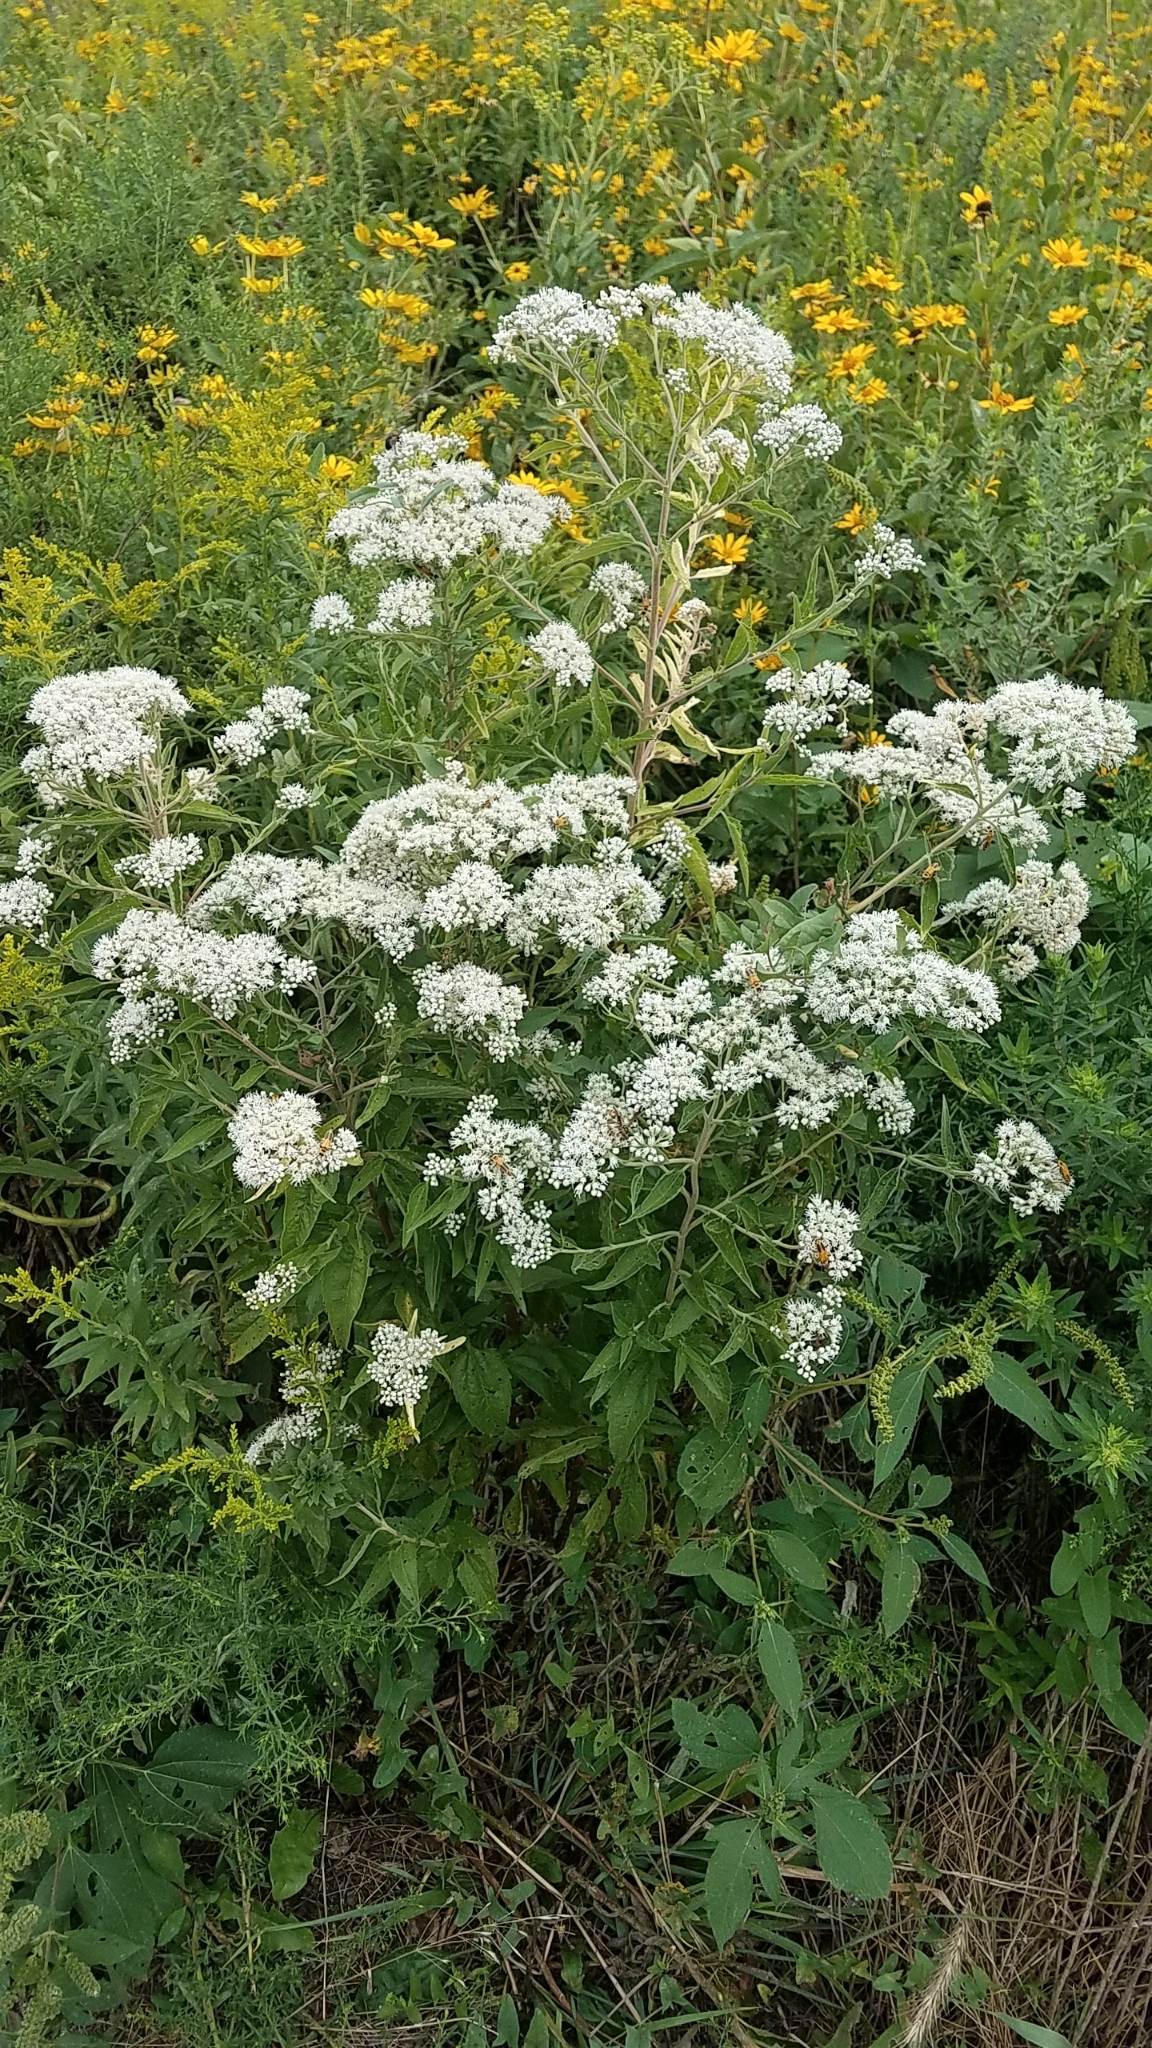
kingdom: Plantae
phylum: Tracheophyta
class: Magnoliopsida
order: Asterales
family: Asteraceae
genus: Eupatorium
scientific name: Eupatorium serotinum
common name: Late boneset
